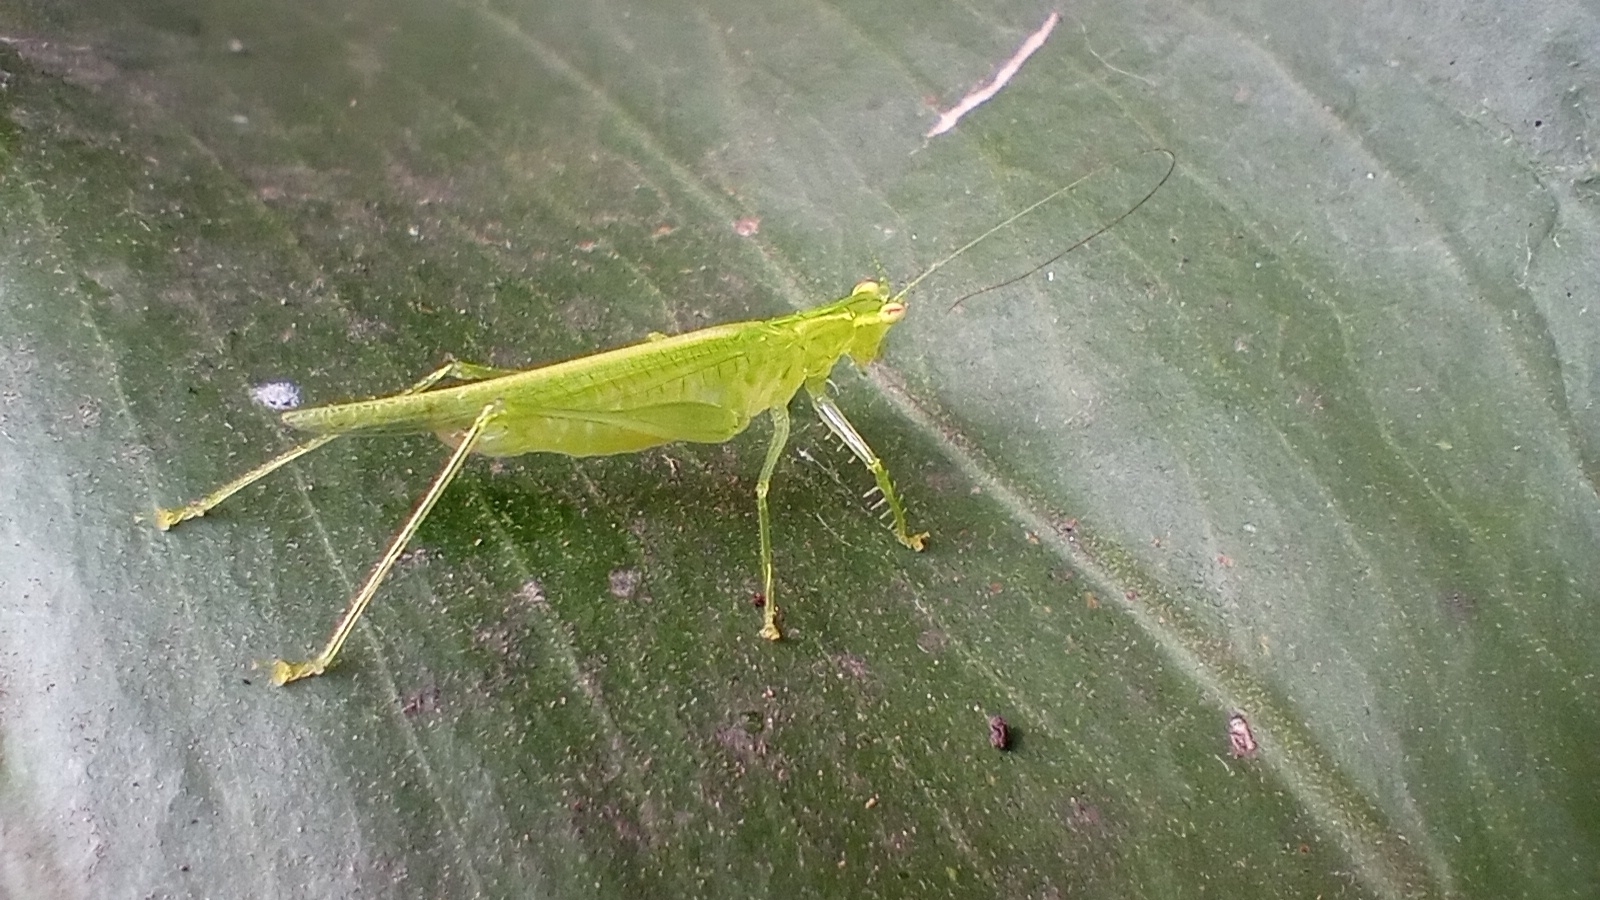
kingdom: Animalia
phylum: Arthropoda
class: Insecta
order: Orthoptera
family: Tettigoniidae
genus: Phlugis
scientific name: Phlugis proseni
